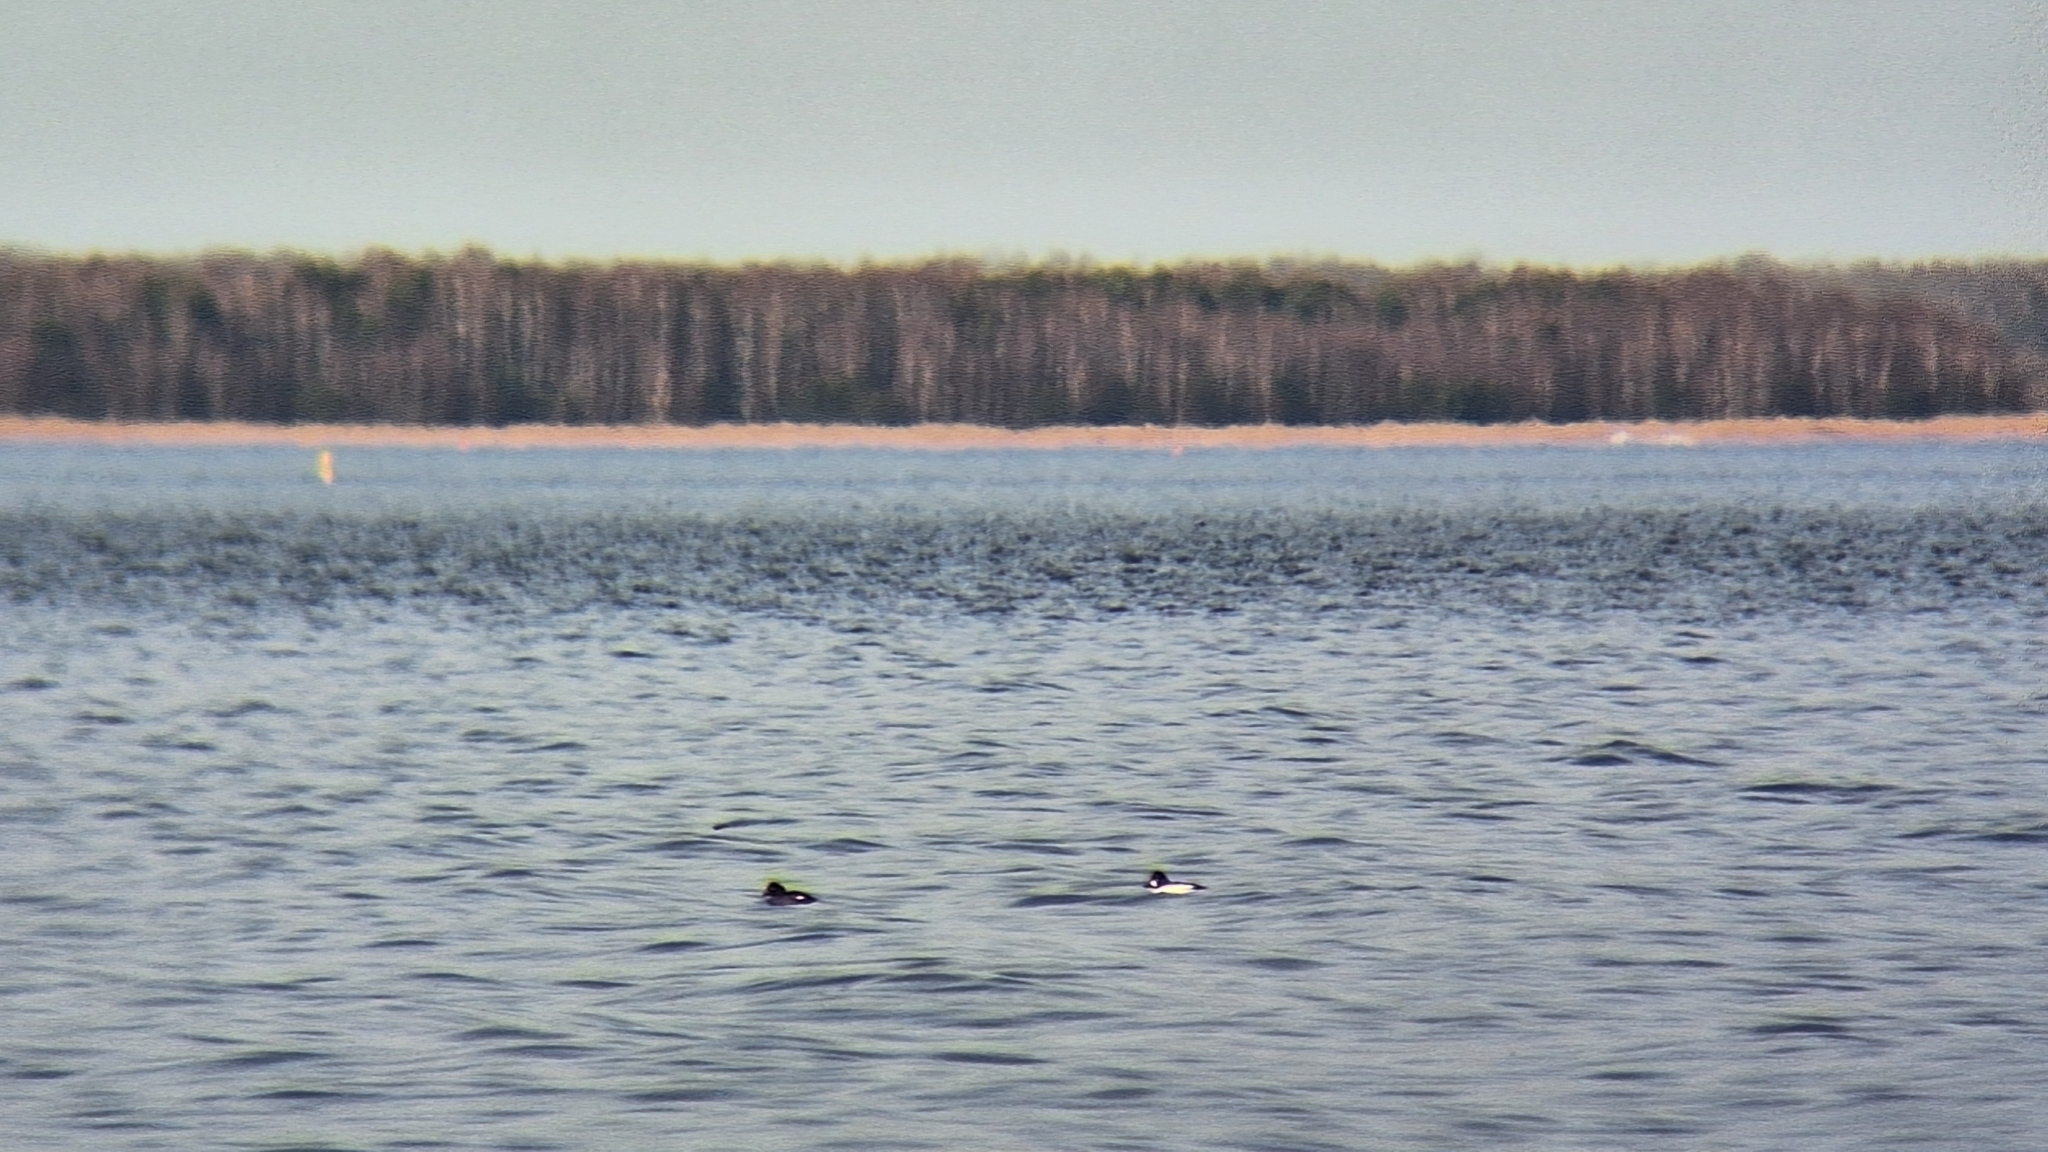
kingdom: Animalia
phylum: Chordata
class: Aves
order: Anseriformes
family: Anatidae
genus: Bucephala
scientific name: Bucephala clangula
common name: Common goldeneye
